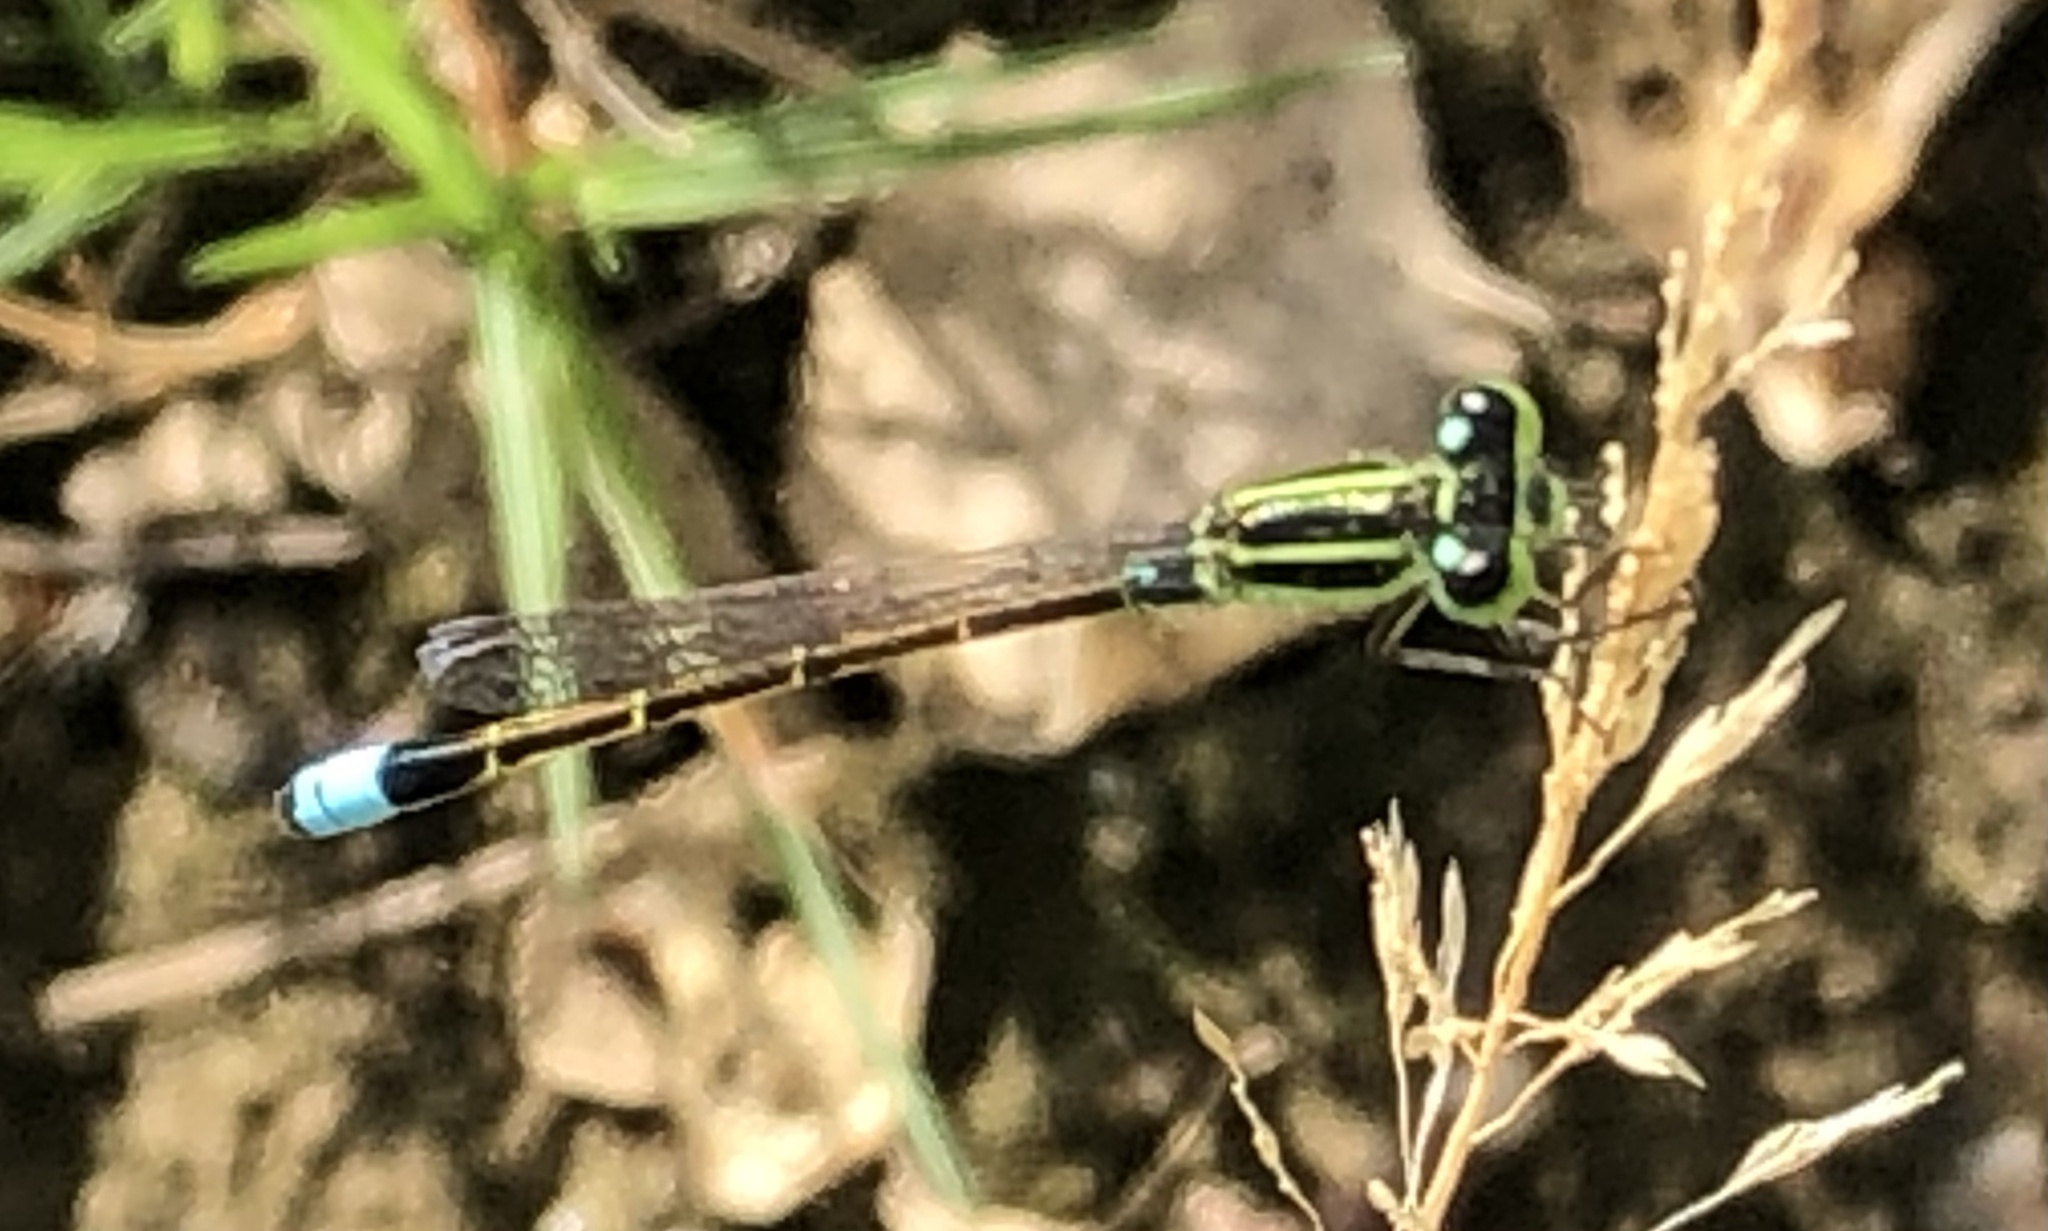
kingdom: Animalia
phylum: Arthropoda
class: Insecta
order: Odonata
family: Coenagrionidae
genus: Ischnura
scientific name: Ischnura ramburii
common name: Rambur's forktail
